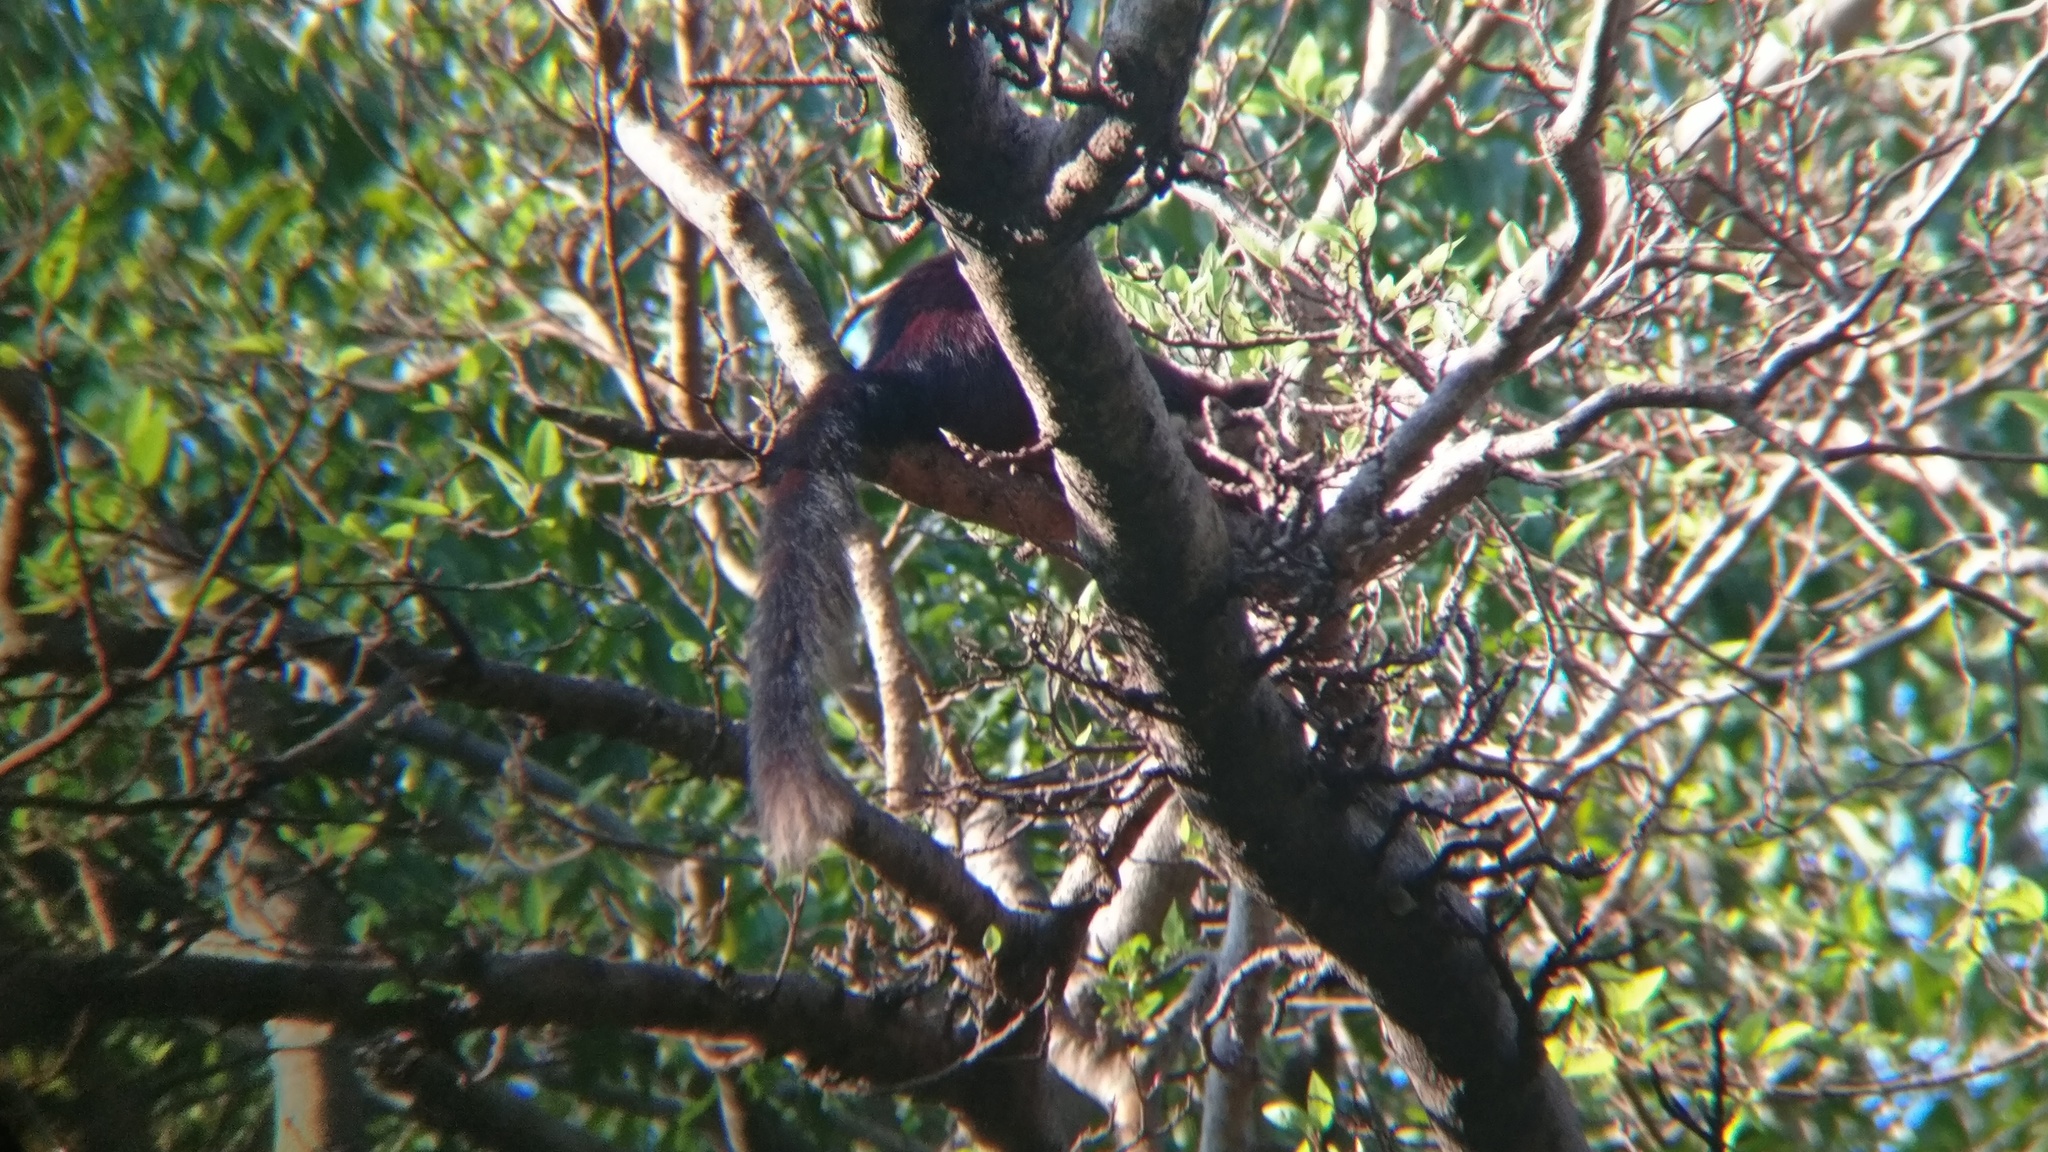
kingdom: Animalia
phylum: Chordata
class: Mammalia
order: Rodentia
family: Sciuridae
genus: Ratufa
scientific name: Ratufa indica
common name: Indian giant squirrel
